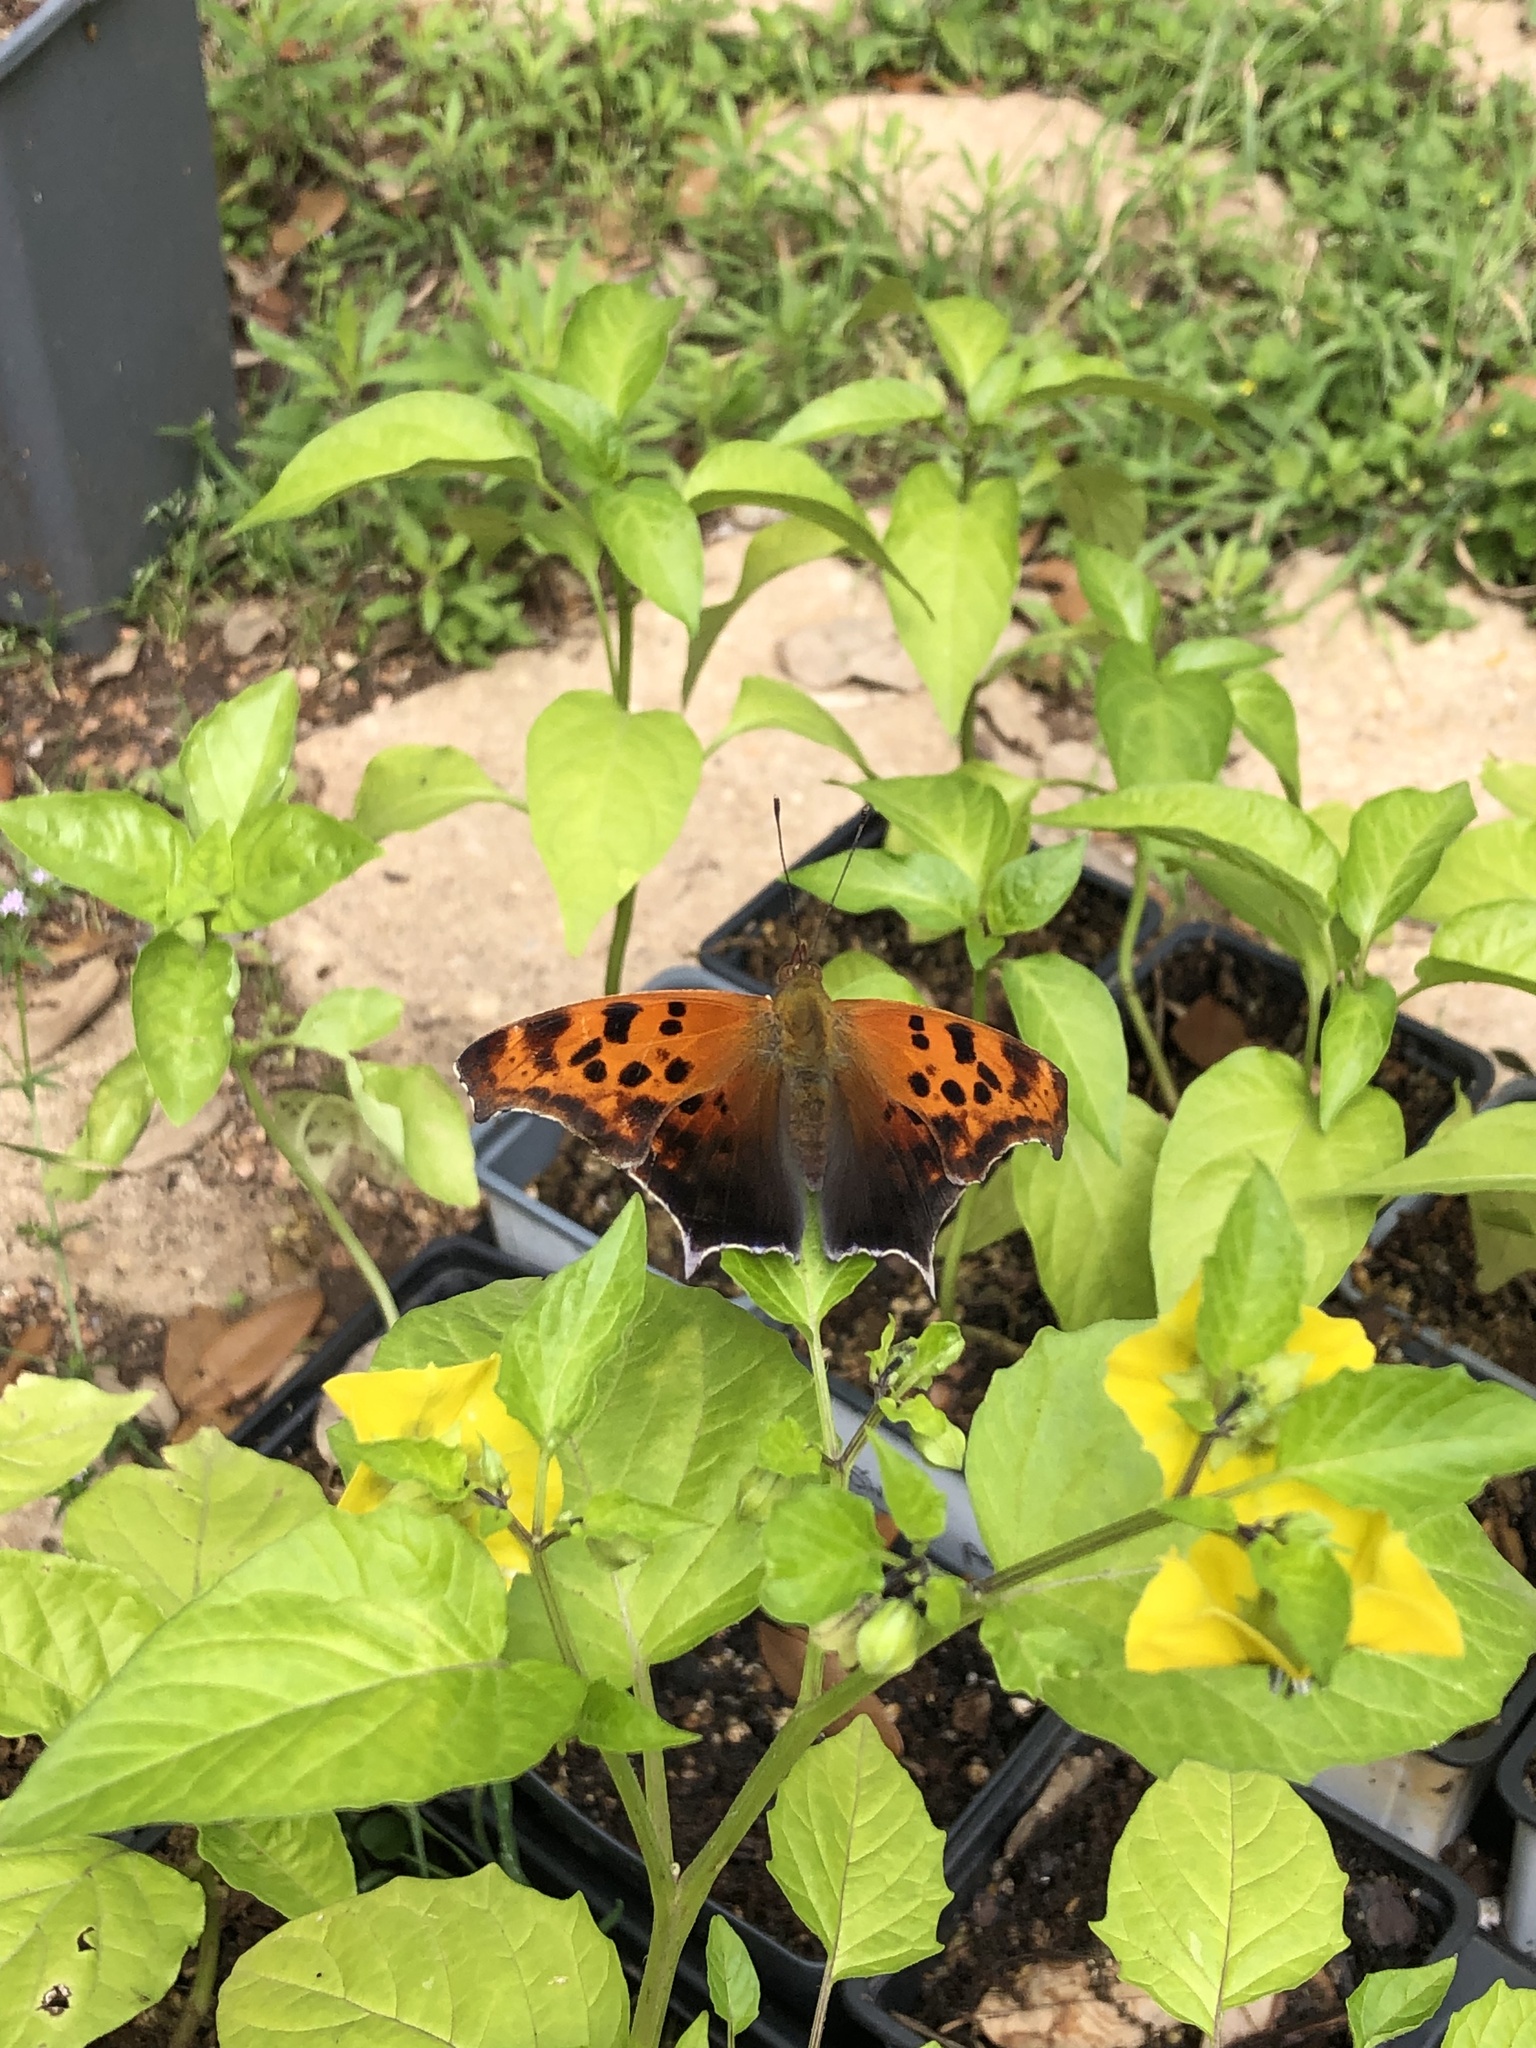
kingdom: Animalia
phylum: Arthropoda
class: Insecta
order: Lepidoptera
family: Nymphalidae
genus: Polygonia
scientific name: Polygonia interrogationis
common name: Question mark
